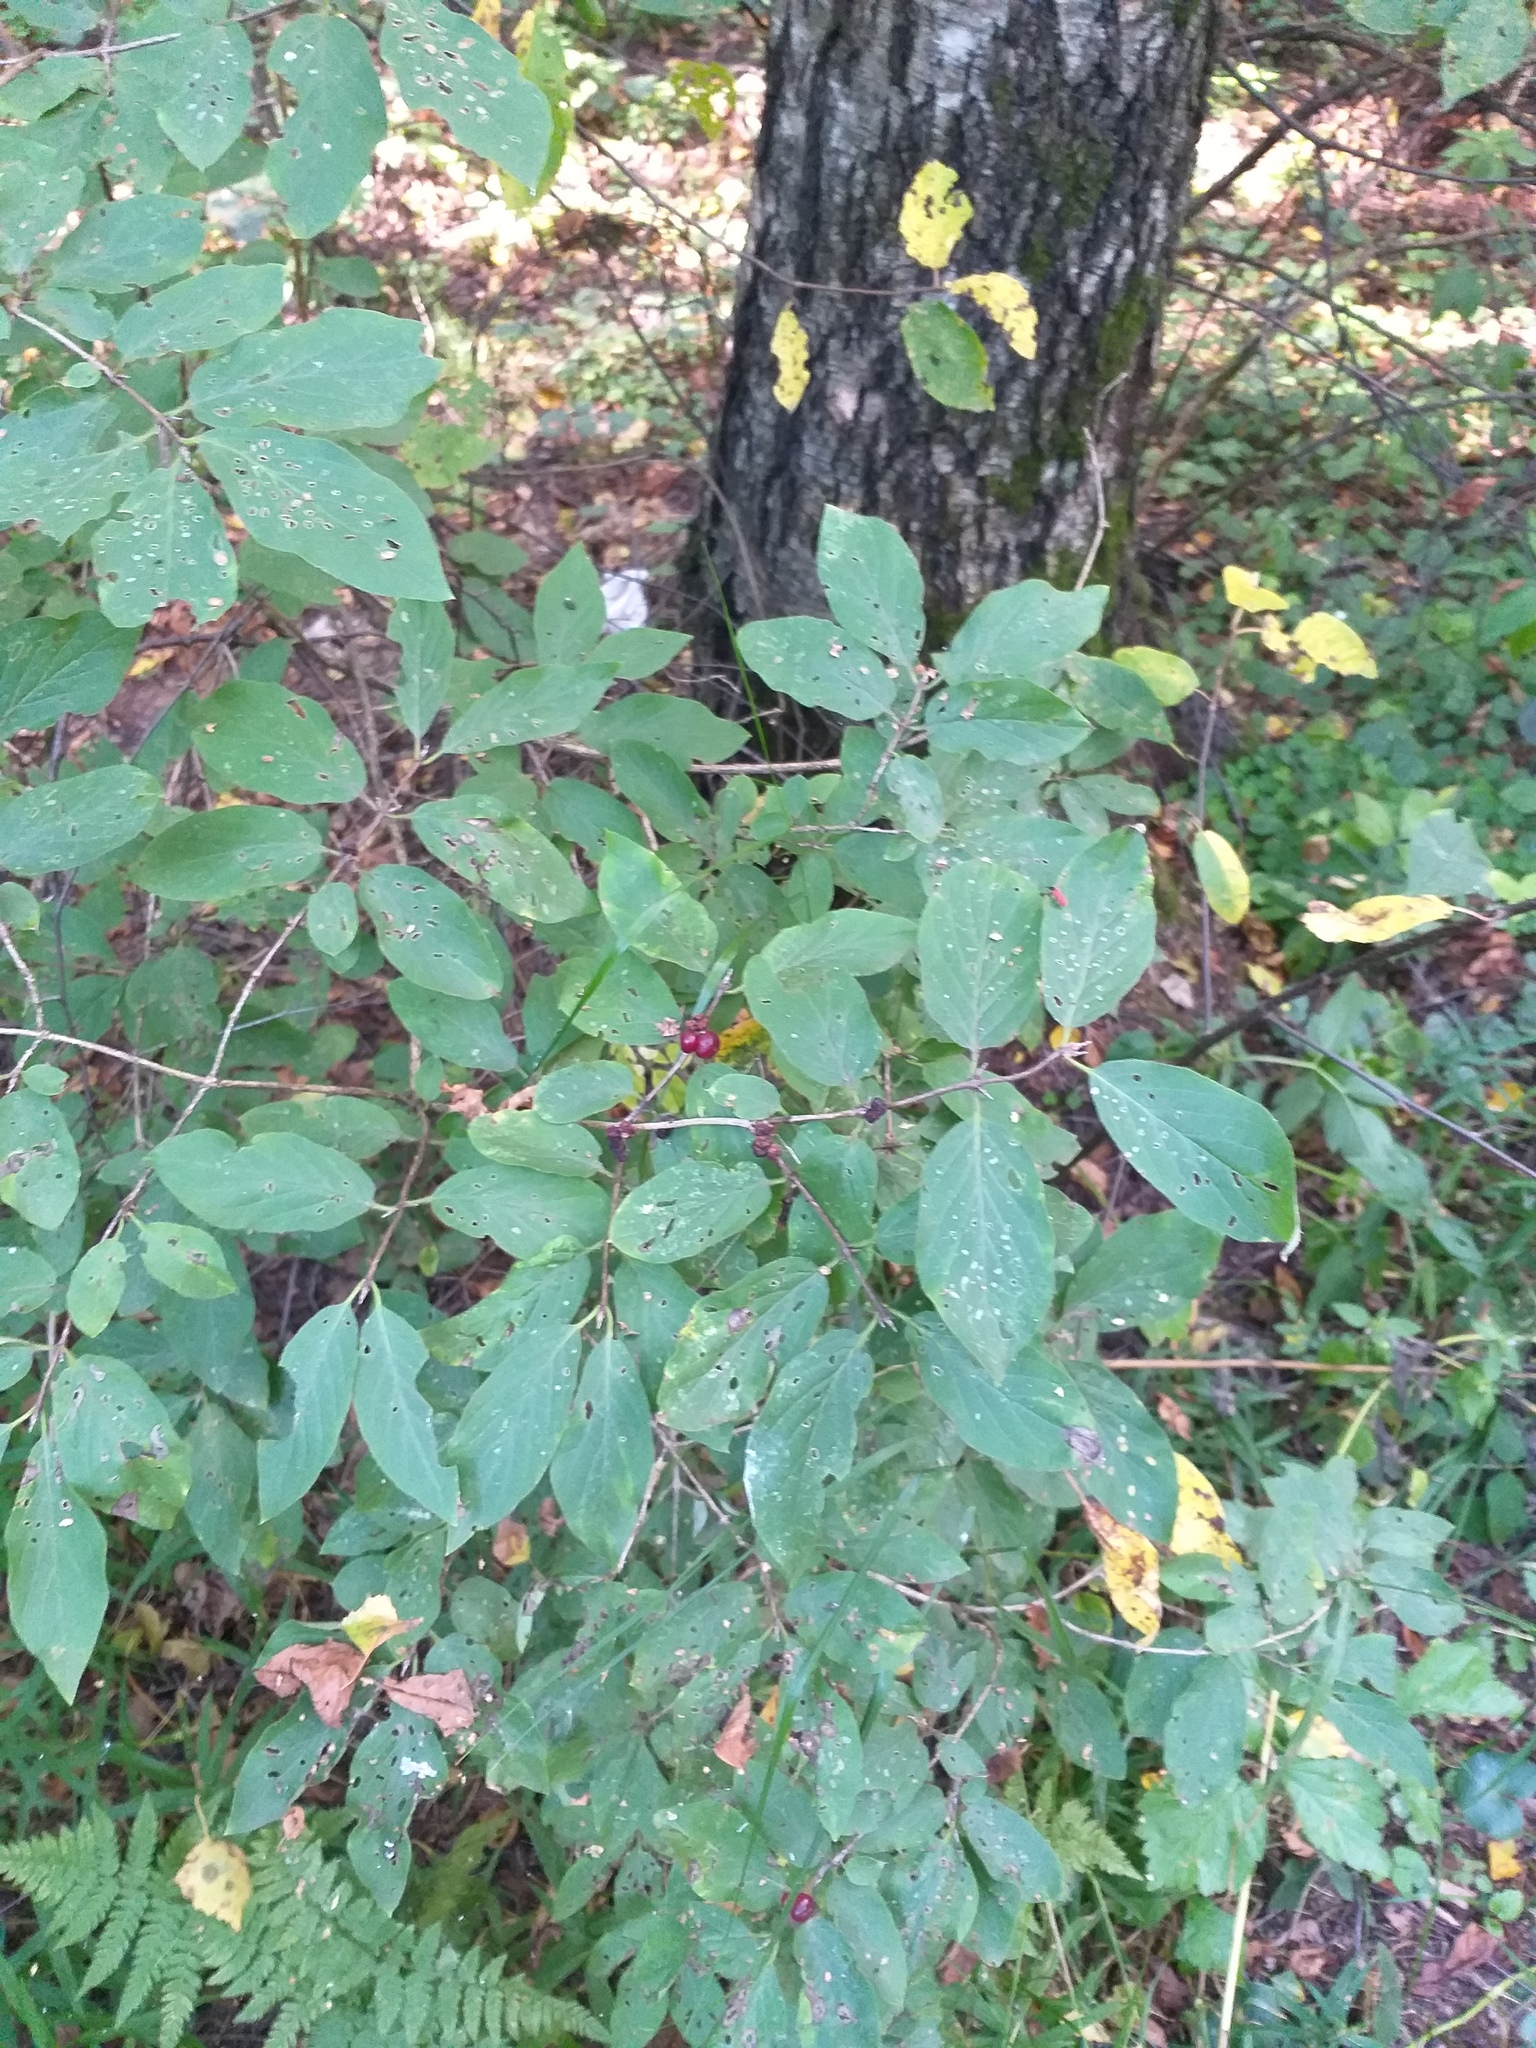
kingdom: Plantae
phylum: Tracheophyta
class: Magnoliopsida
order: Dipsacales
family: Caprifoliaceae
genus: Lonicera
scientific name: Lonicera xylosteum
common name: Fly honeysuckle
